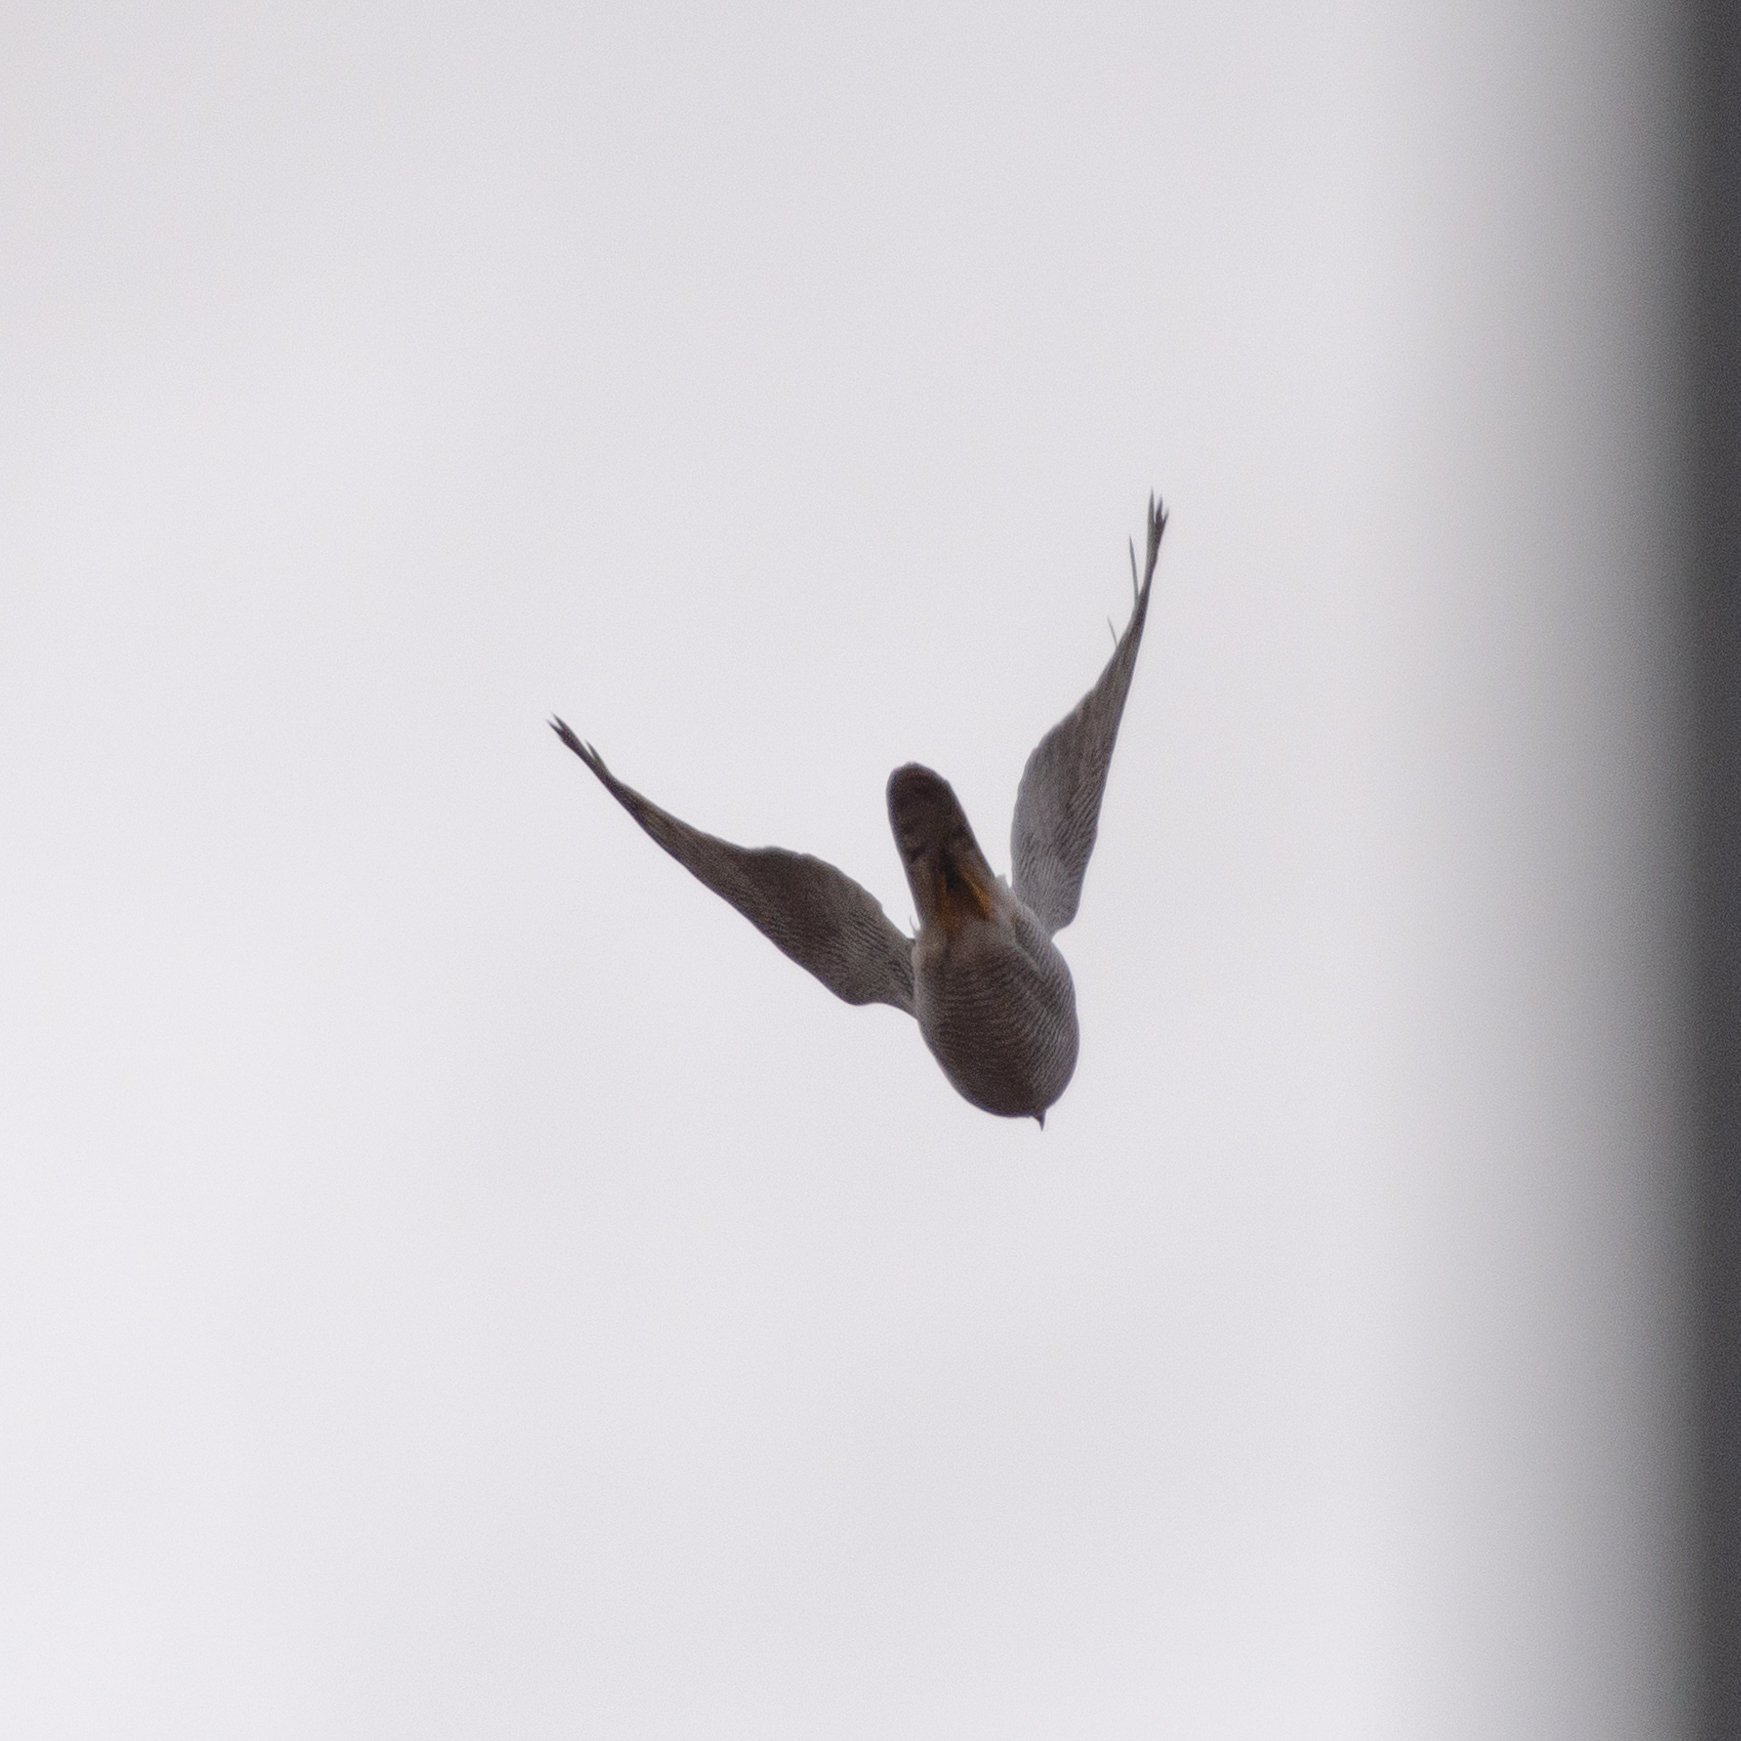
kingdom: Animalia
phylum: Chordata
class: Aves
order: Accipitriformes
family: Accipitridae
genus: Accipiter
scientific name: Accipiter gentilis
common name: Northern goshawk
